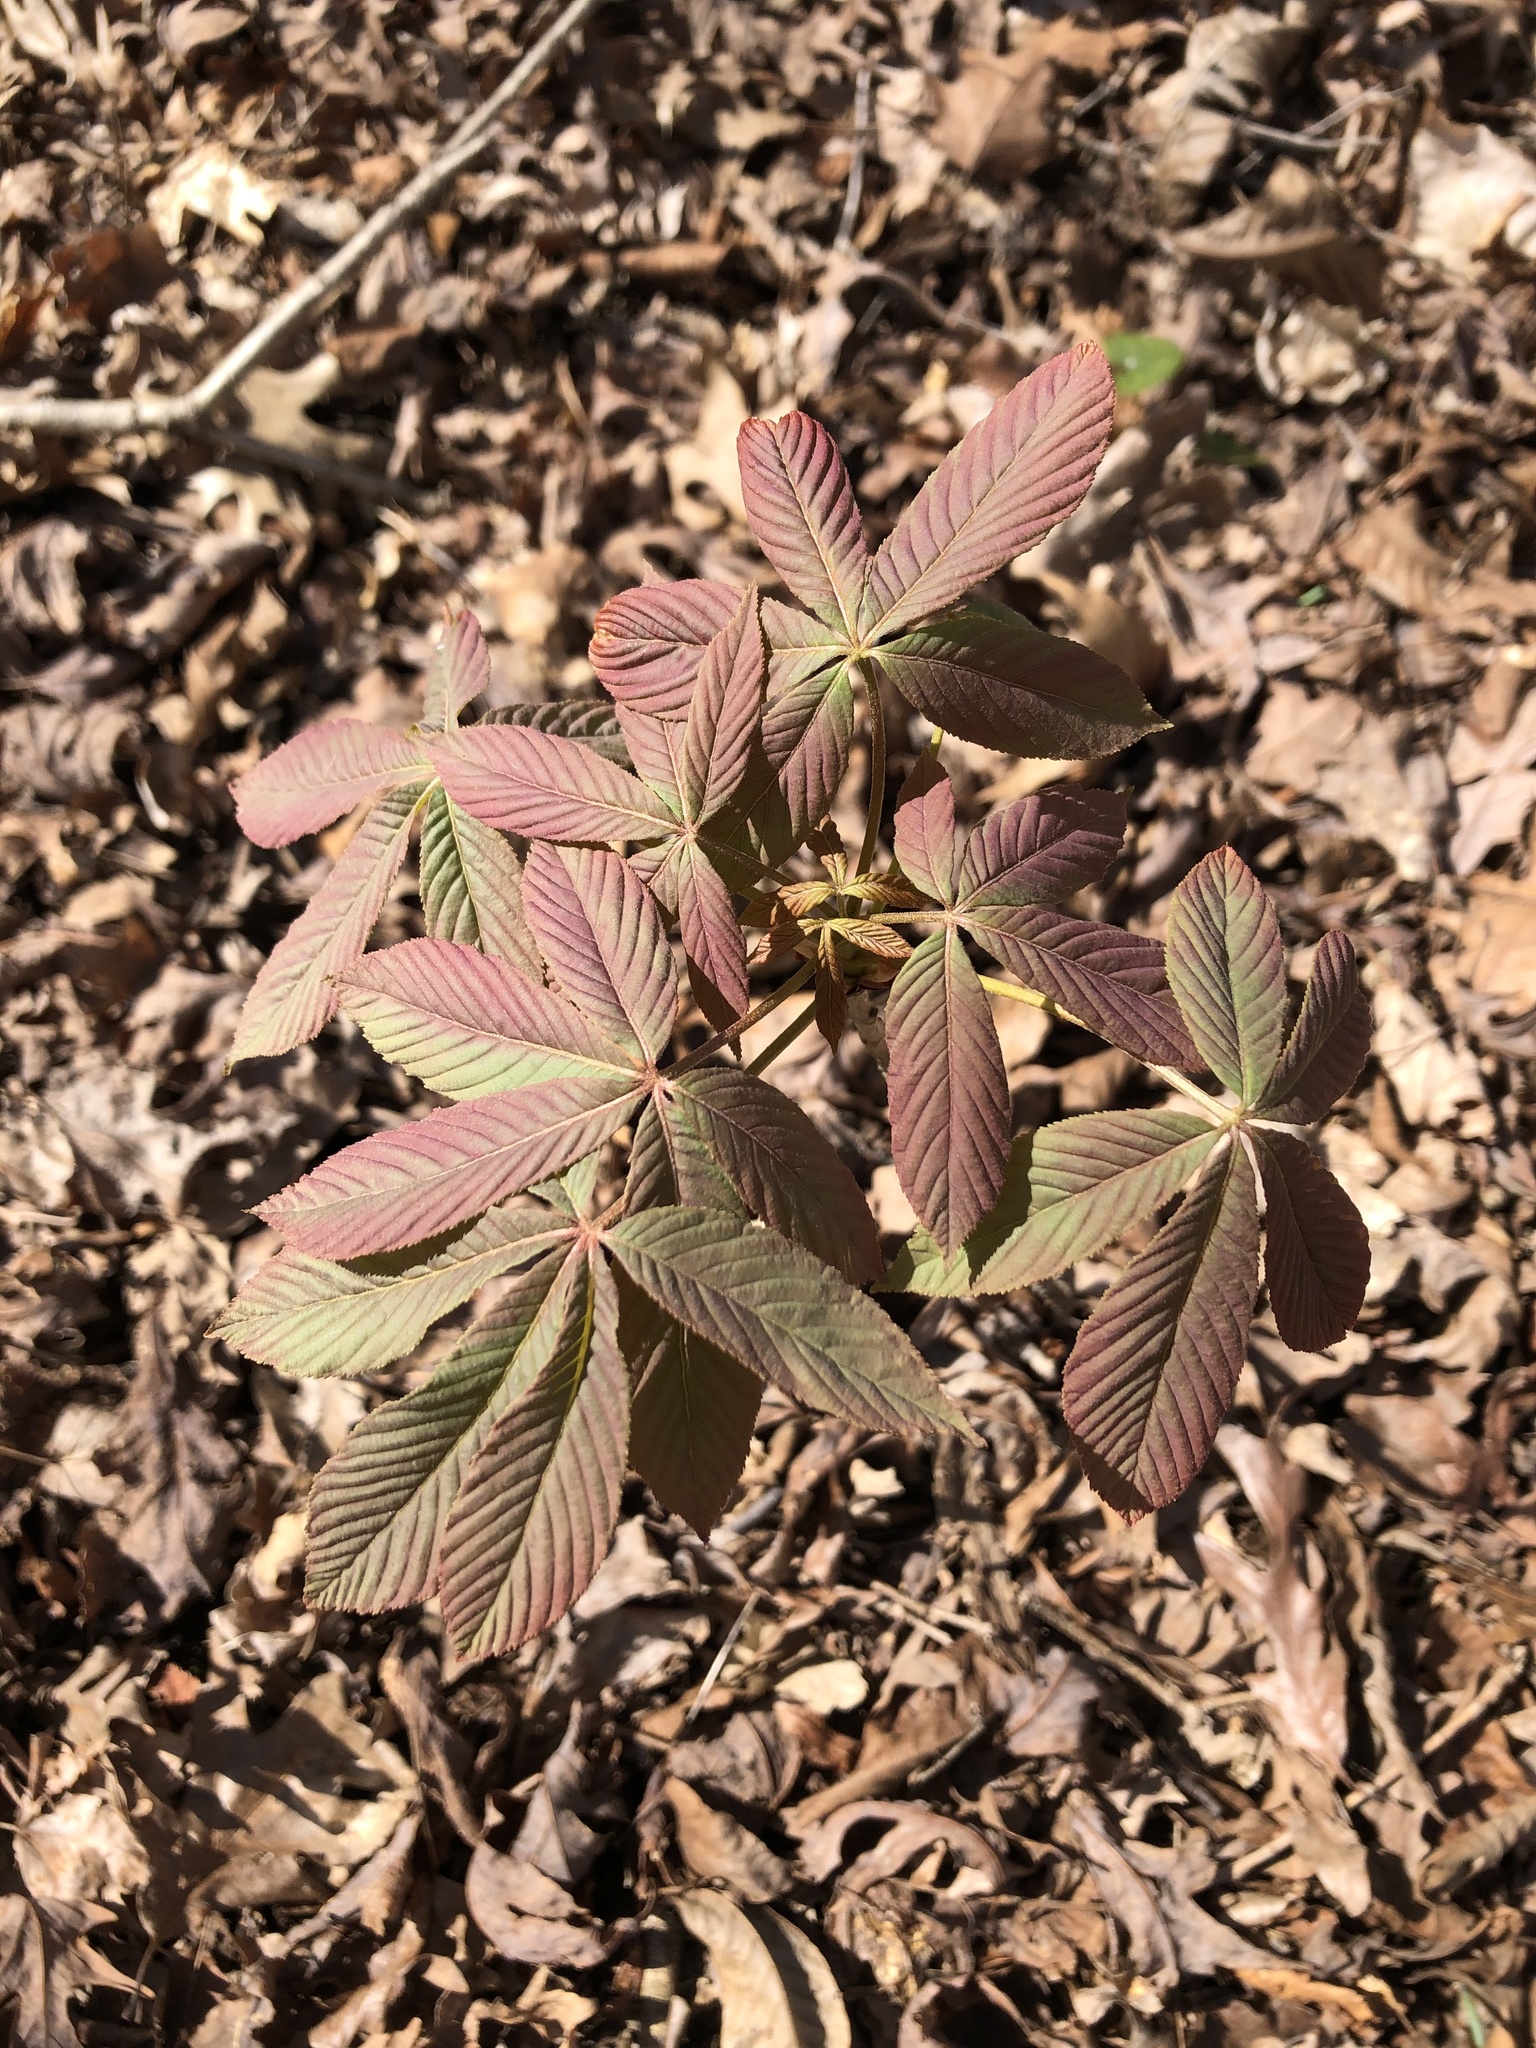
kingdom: Plantae
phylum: Tracheophyta
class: Magnoliopsida
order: Sapindales
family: Sapindaceae
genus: Aesculus
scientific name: Aesculus sylvatica
